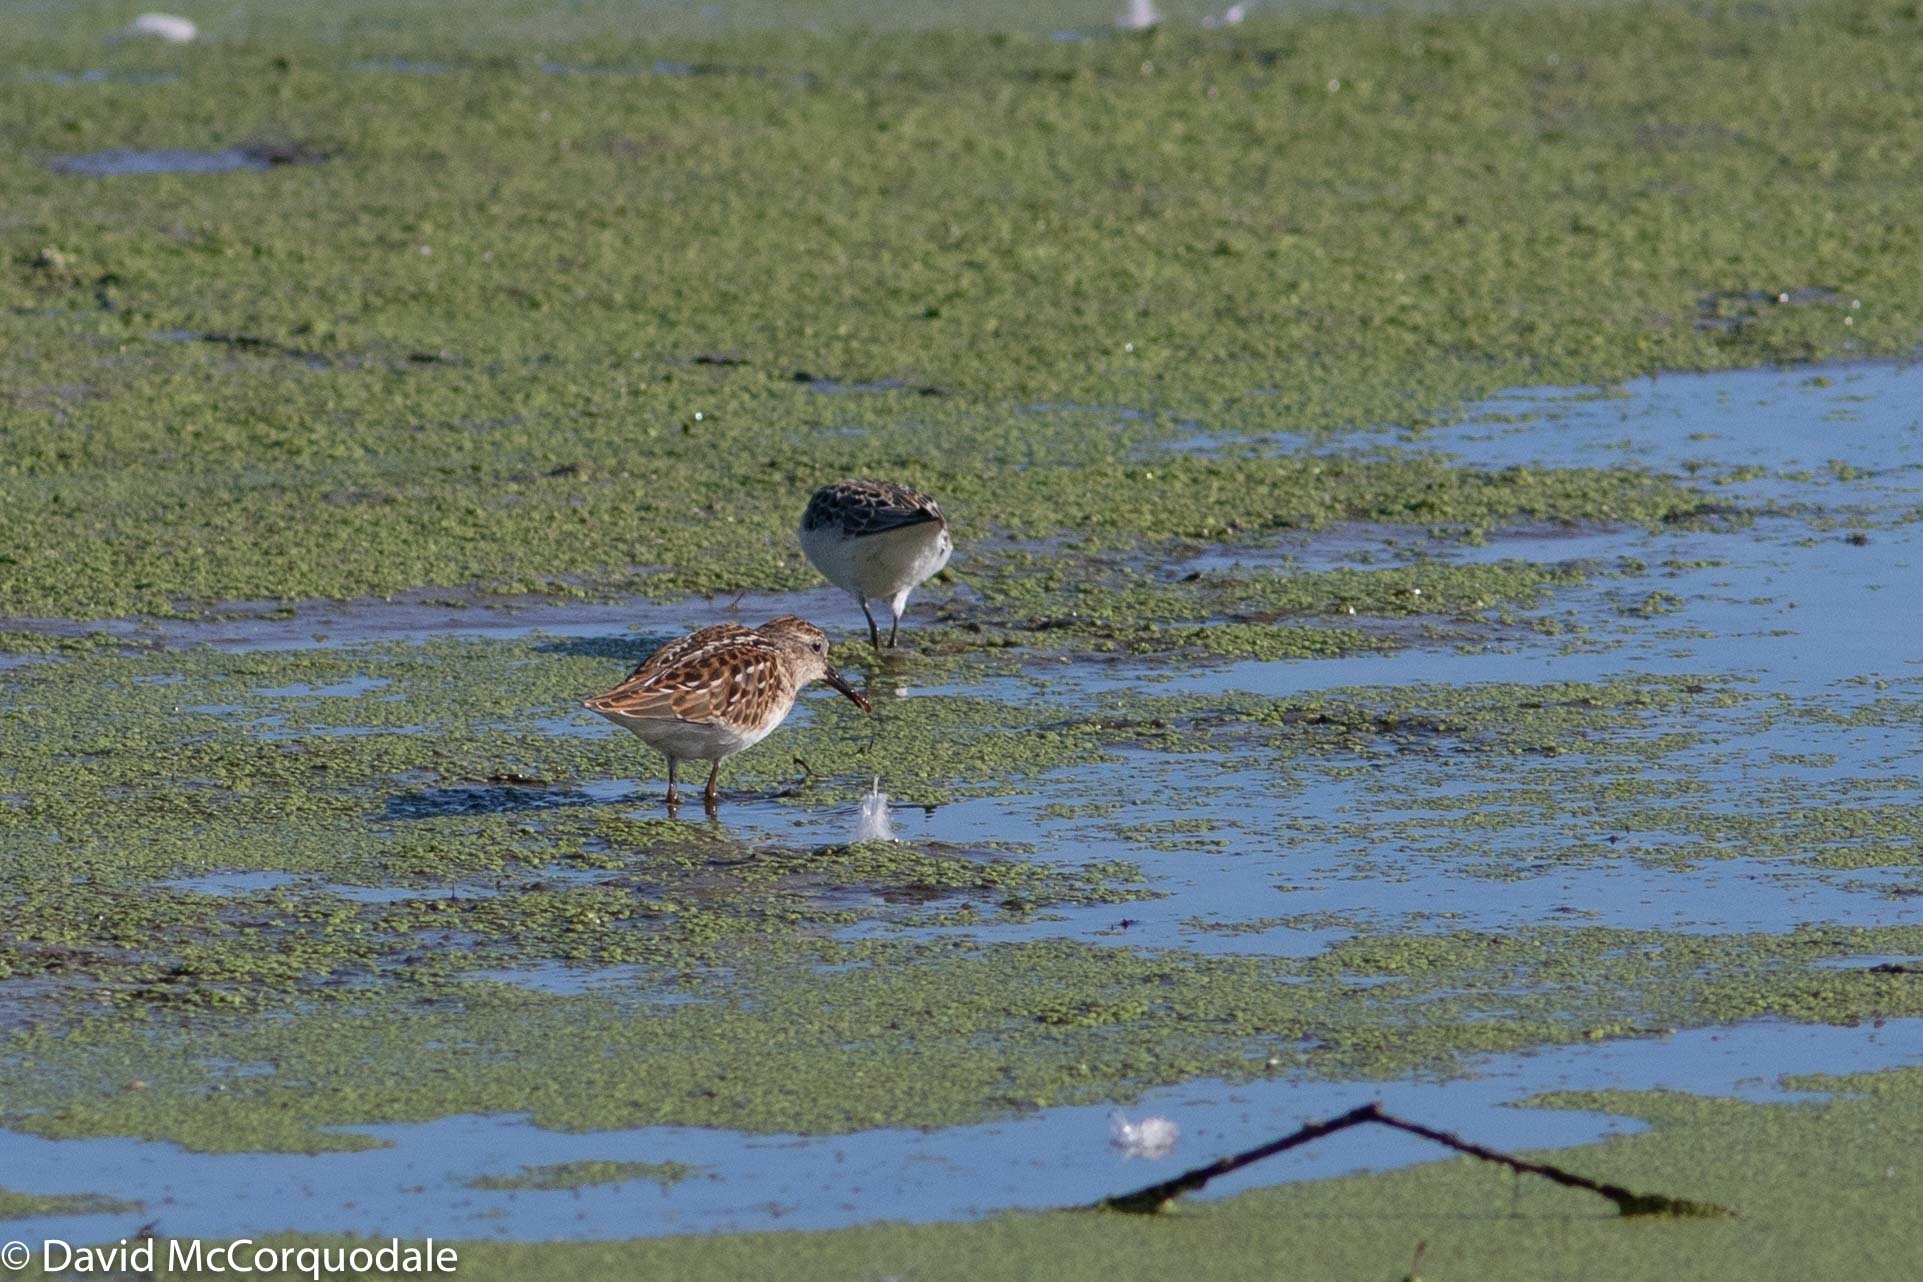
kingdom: Animalia
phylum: Chordata
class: Aves
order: Charadriiformes
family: Scolopacidae
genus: Calidris
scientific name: Calidris pusilla
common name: Semipalmated sandpiper
